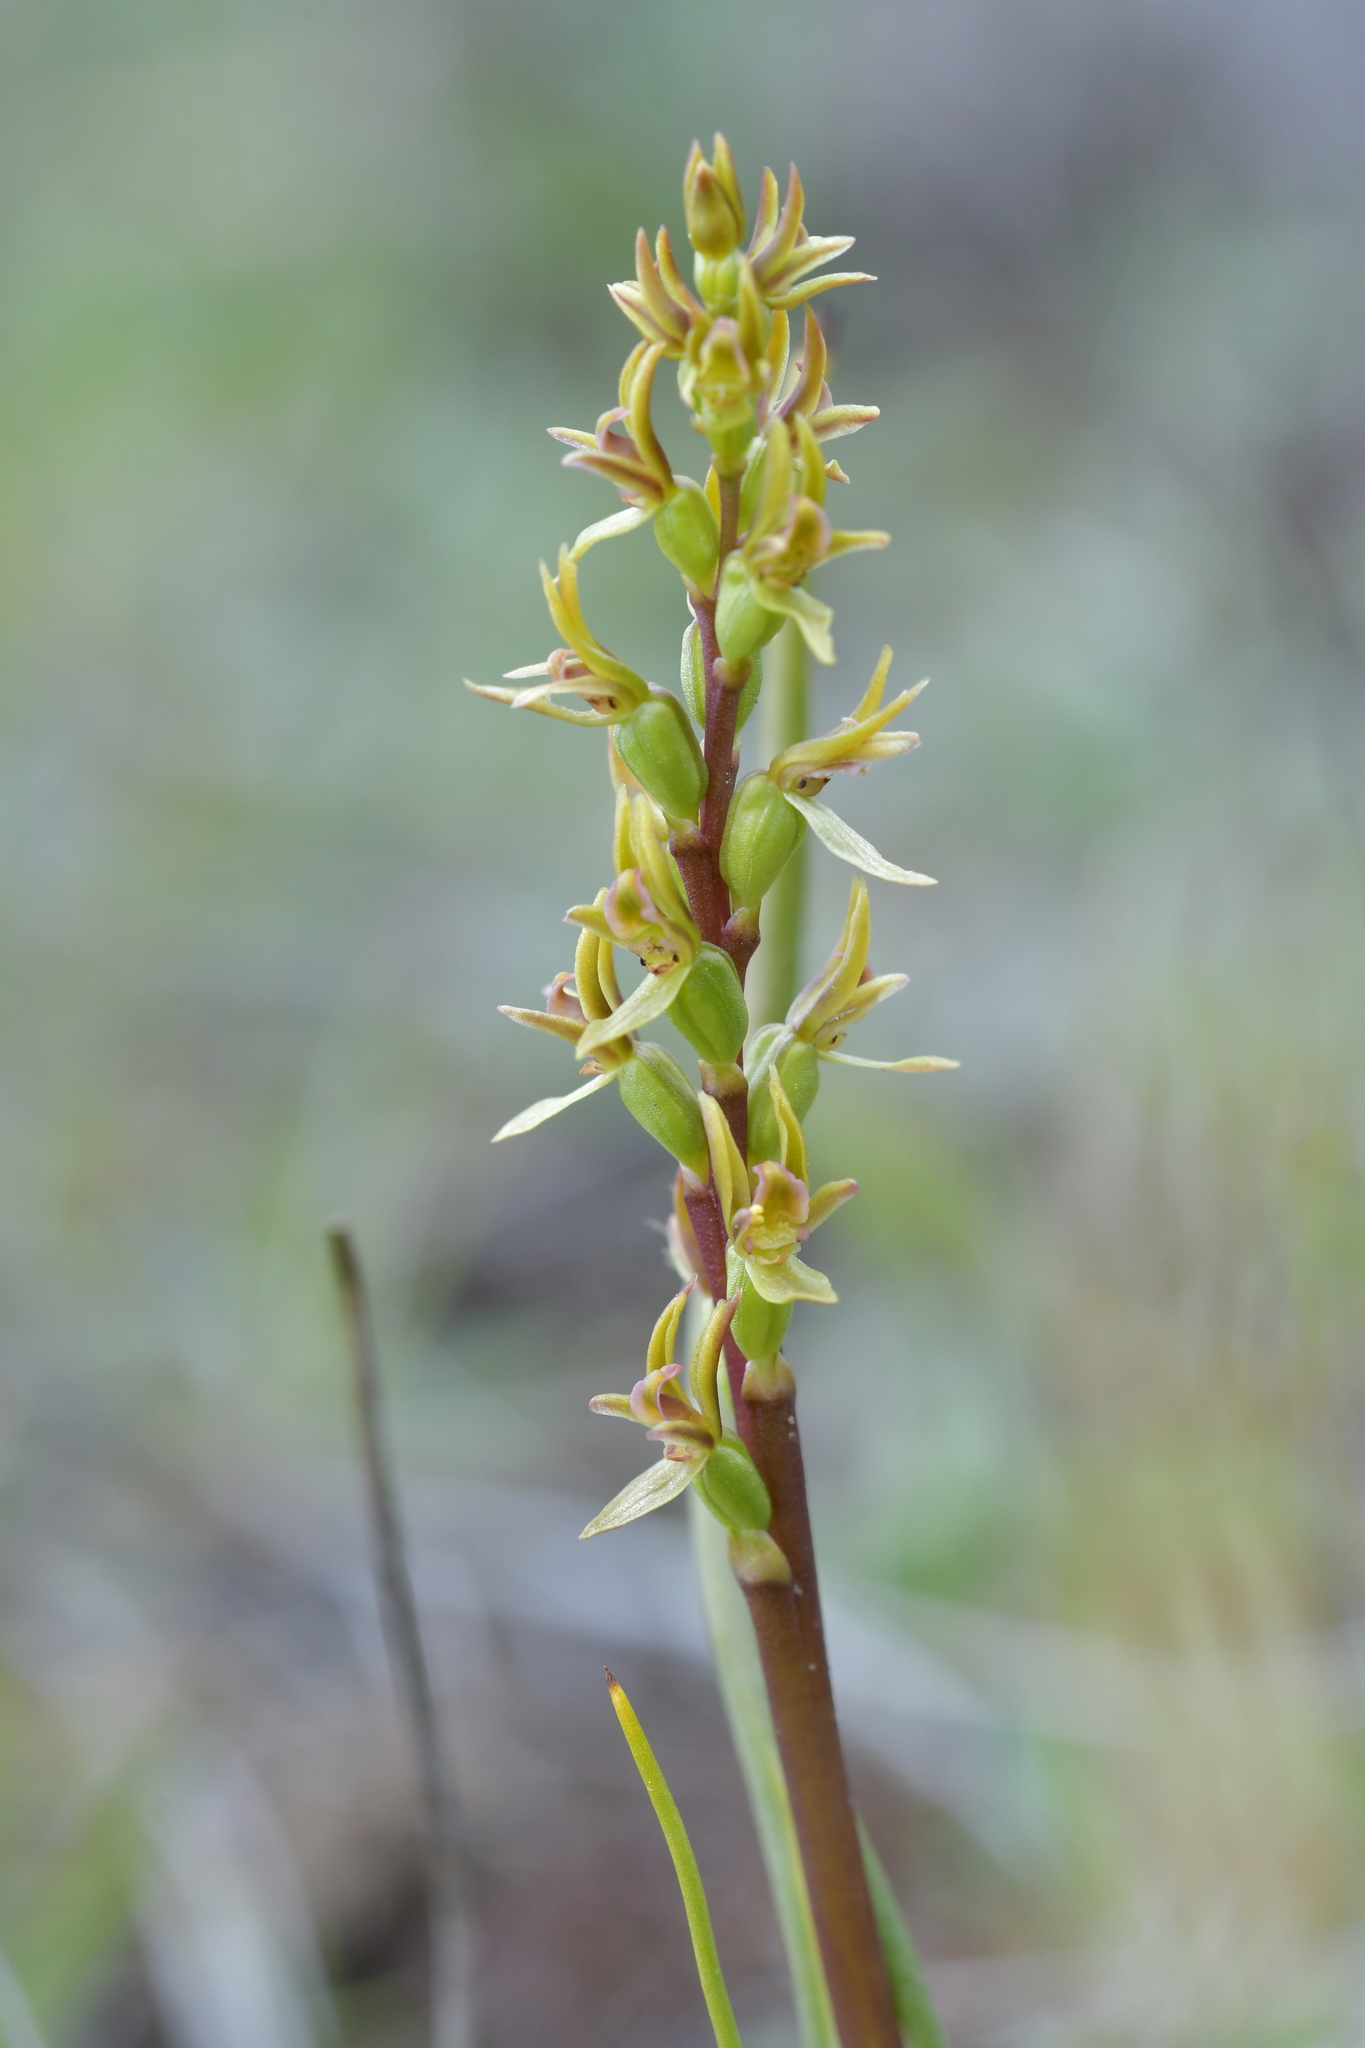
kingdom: Plantae
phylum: Tracheophyta
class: Liliopsida
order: Asparagales
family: Orchidaceae
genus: Prasophyllum
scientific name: Prasophyllum colensoi
